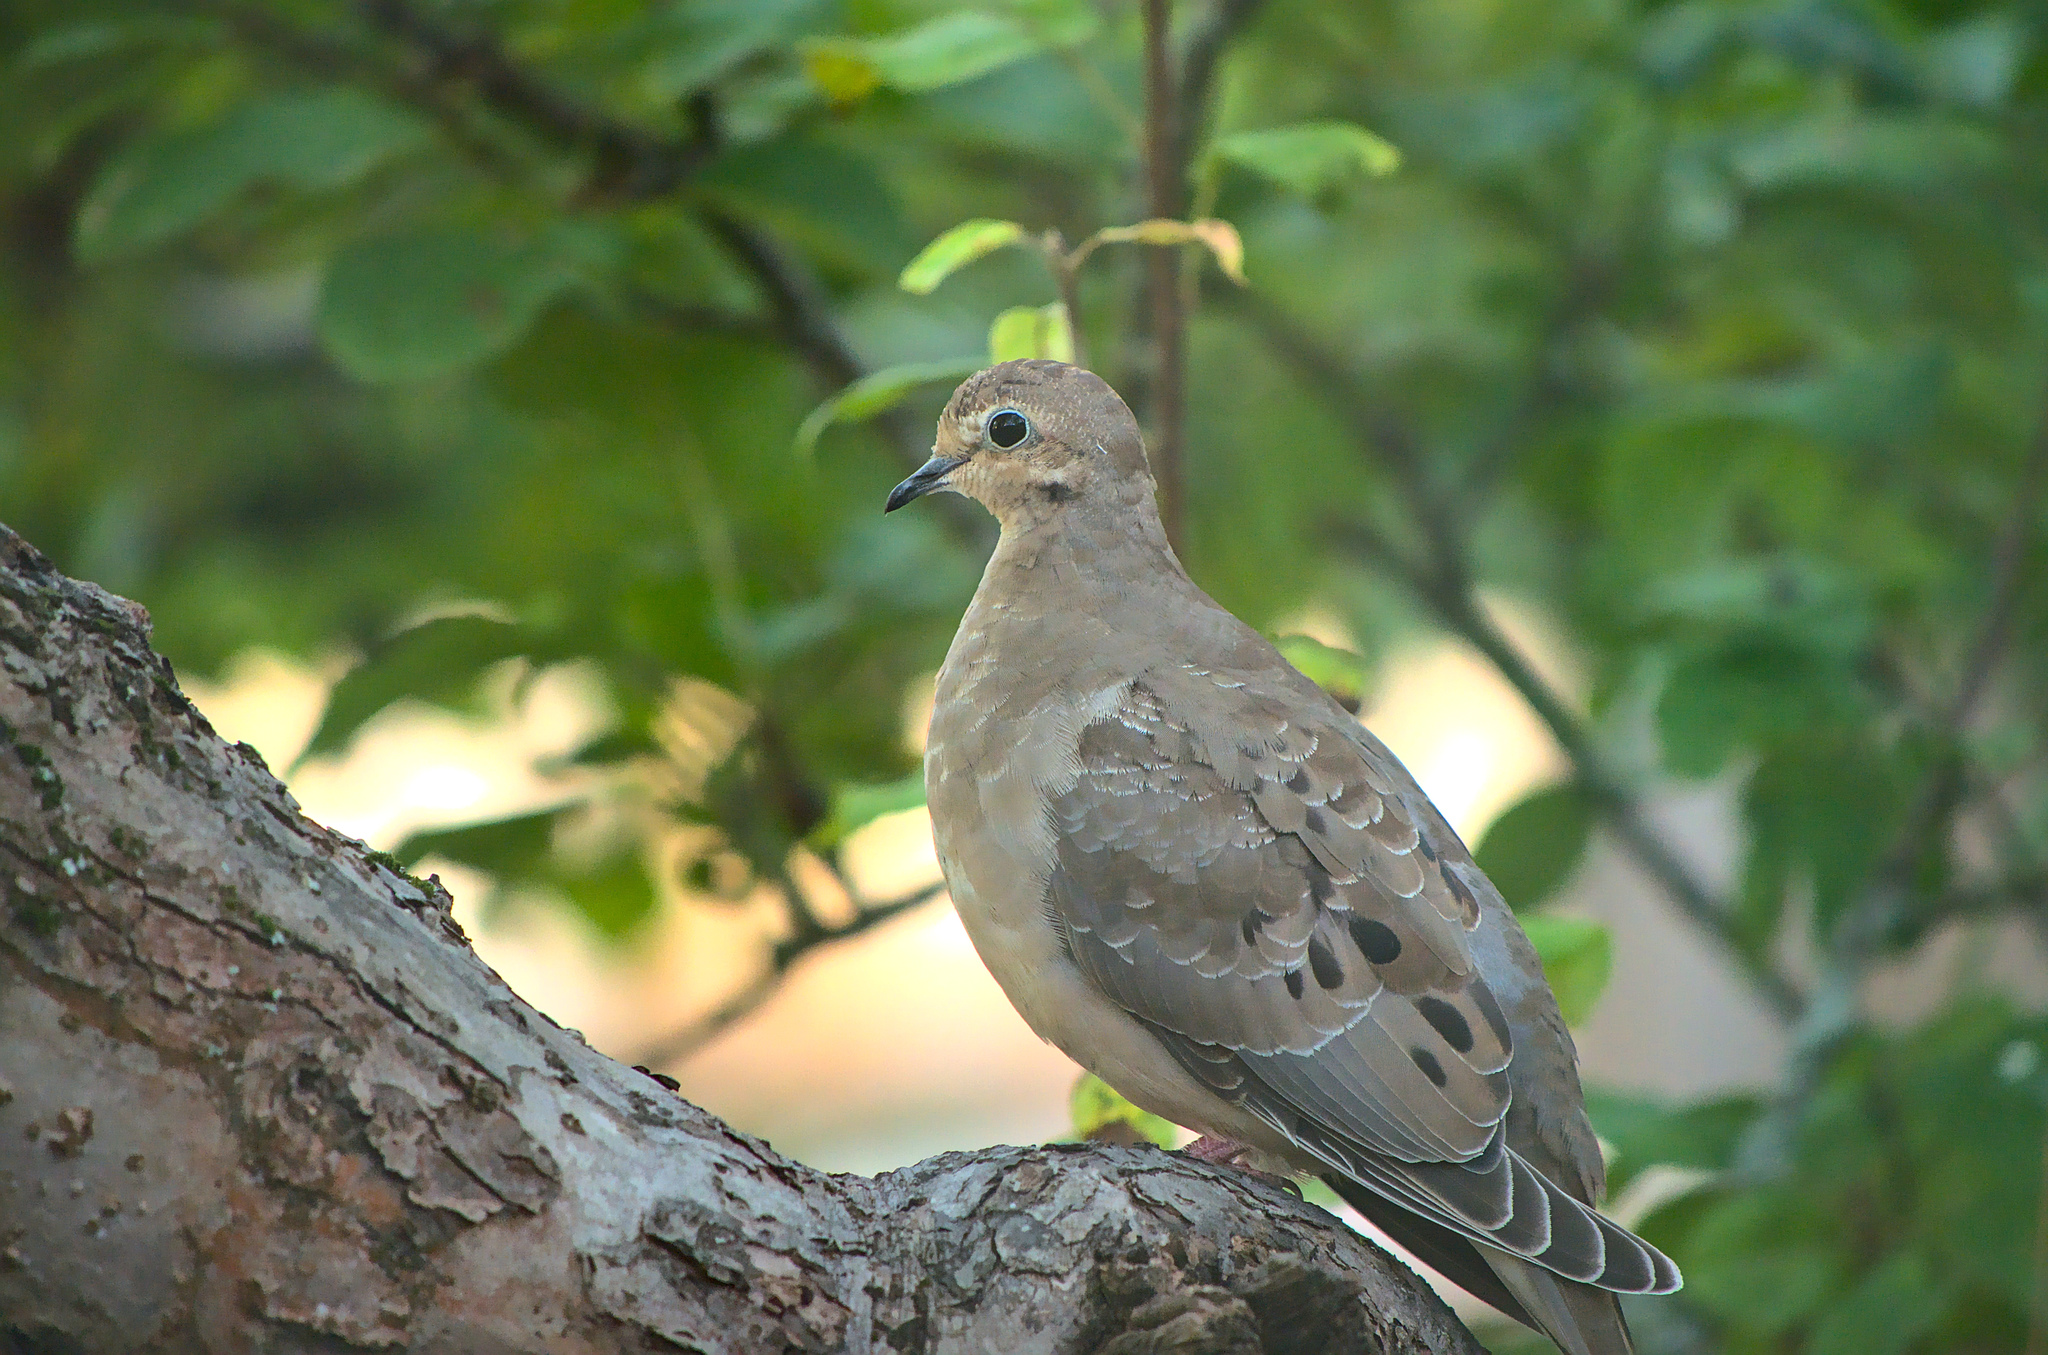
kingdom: Animalia
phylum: Chordata
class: Aves
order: Columbiformes
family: Columbidae
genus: Zenaida
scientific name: Zenaida macroura
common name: Mourning dove
